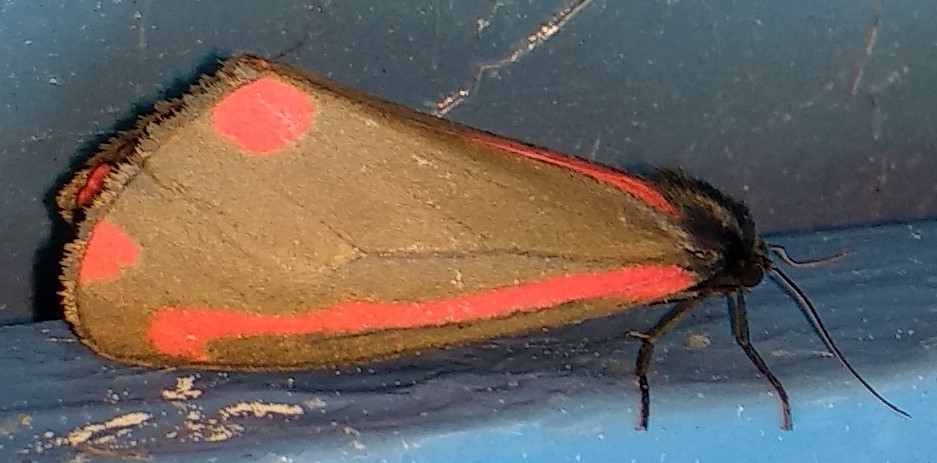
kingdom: Animalia
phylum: Arthropoda
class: Insecta
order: Lepidoptera
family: Erebidae
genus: Tyria
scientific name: Tyria jacobaeae
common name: Cinnabar
